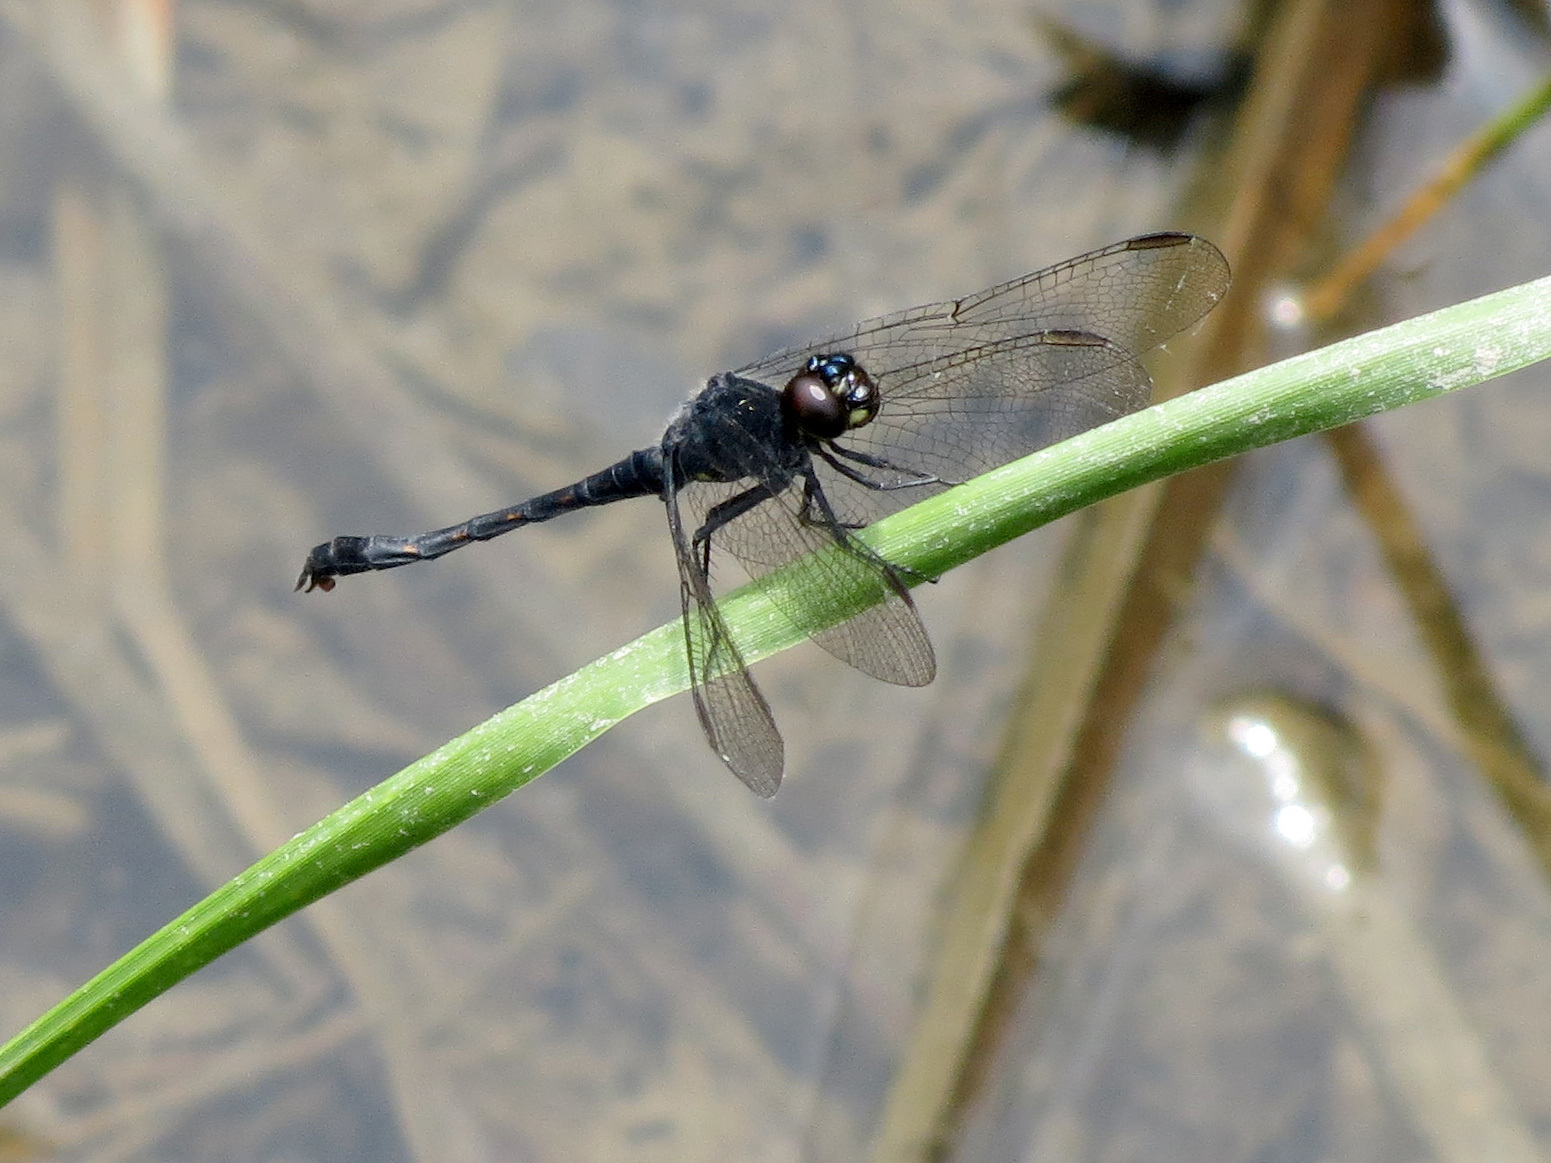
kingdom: Animalia
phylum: Arthropoda
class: Insecta
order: Odonata
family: Libellulidae
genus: Erythrodiplax
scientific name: Erythrodiplax berenice
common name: Seaside dragonlet
